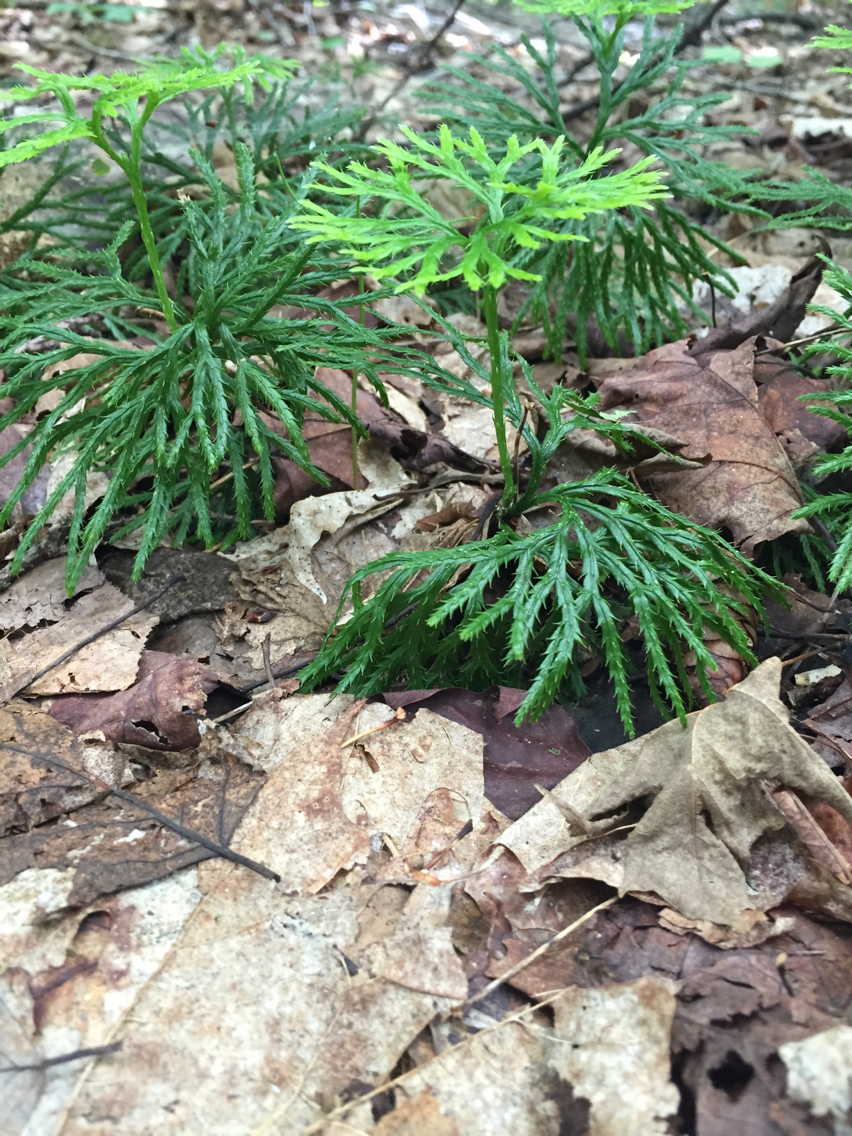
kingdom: Plantae
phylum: Tracheophyta
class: Lycopodiopsida
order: Lycopodiales
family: Lycopodiaceae
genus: Diphasiastrum
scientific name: Diphasiastrum digitatum
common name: Southern running-pine
